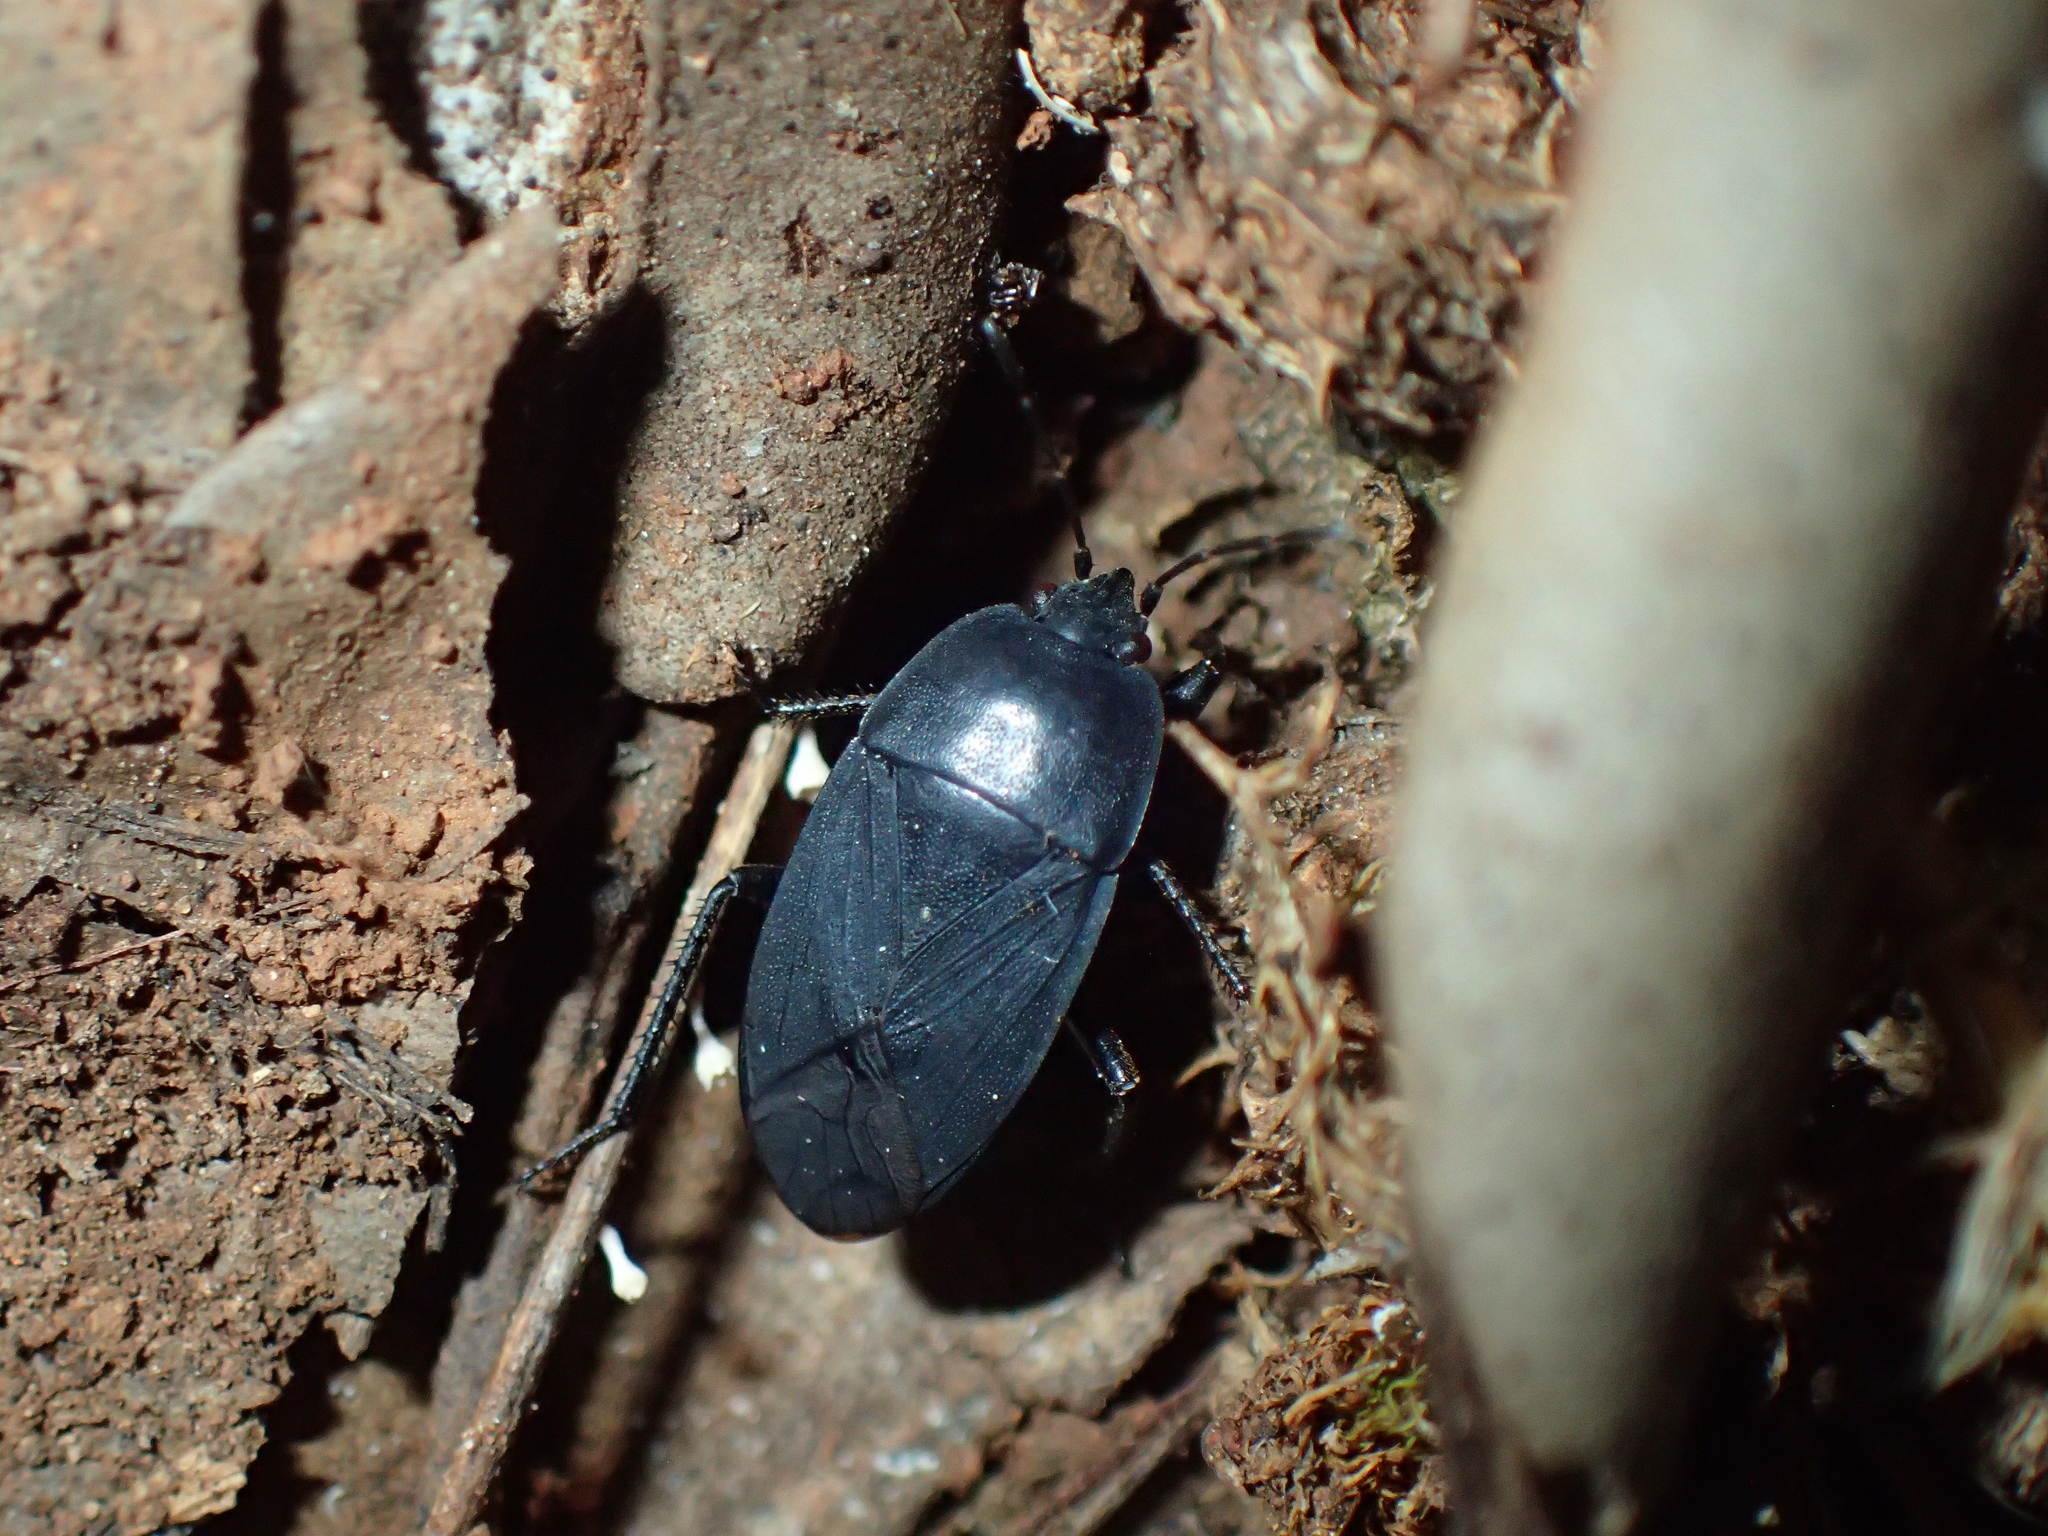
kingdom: Animalia
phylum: Arthropoda
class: Insecta
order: Hemiptera
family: Rhyparochromidae
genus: Aellopus
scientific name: Aellopus atratus
